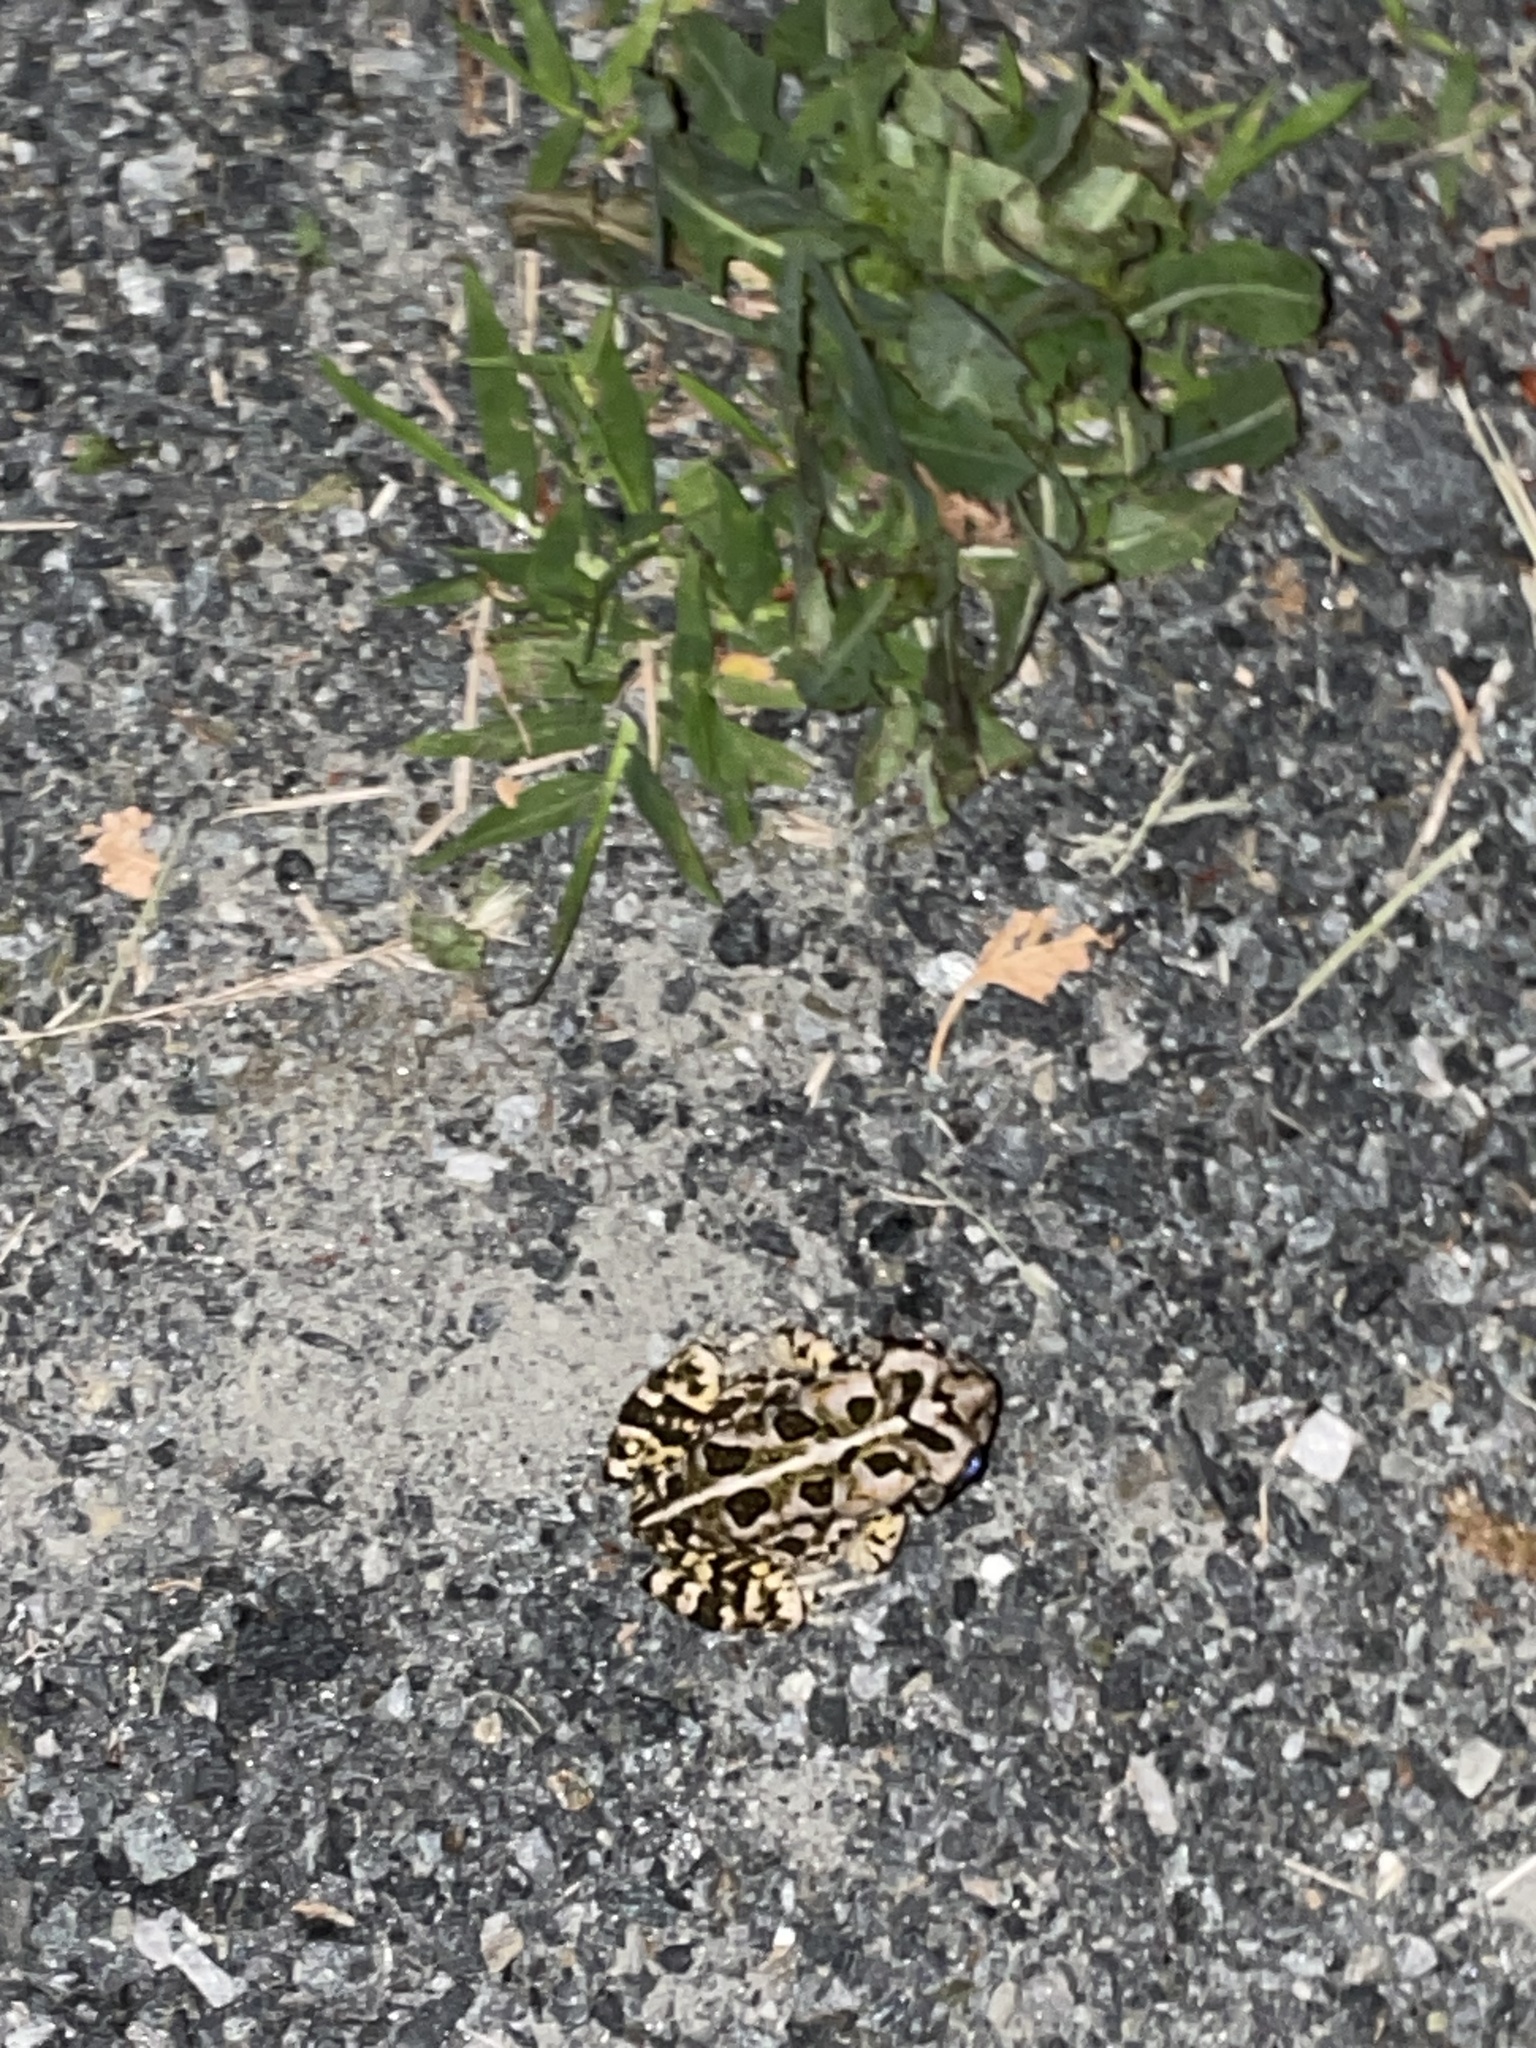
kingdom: Animalia
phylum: Chordata
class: Amphibia
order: Anura
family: Bufonidae
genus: Anaxyrus
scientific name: Anaxyrus fowleri
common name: Fowler's toad
